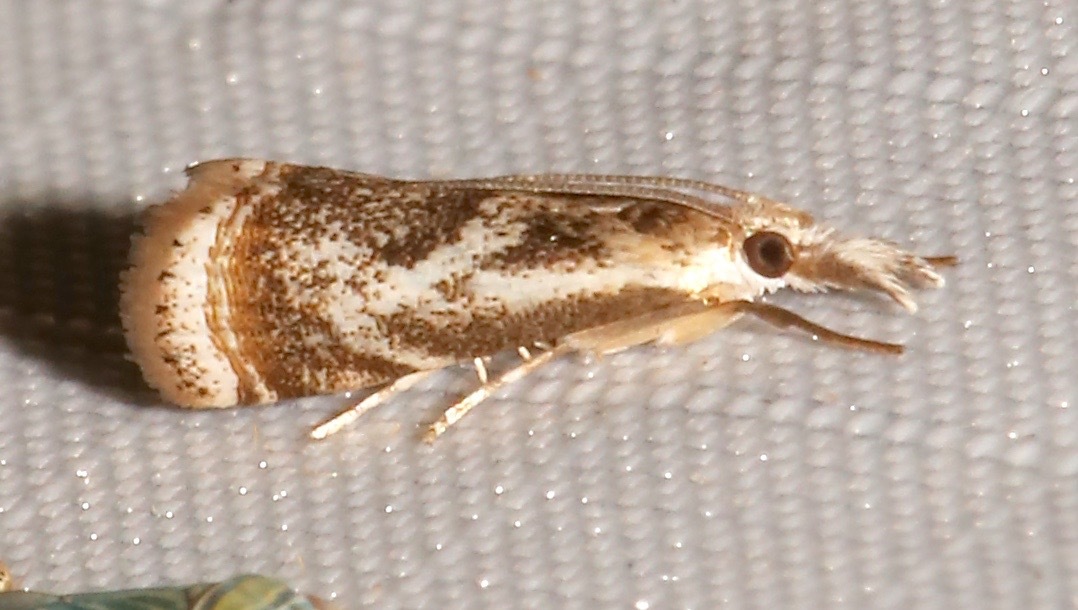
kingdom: Animalia
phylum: Arthropoda
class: Insecta
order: Lepidoptera
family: Crambidae
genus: Microcrambus
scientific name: Microcrambus elegans
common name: Elegant grass-veneer
